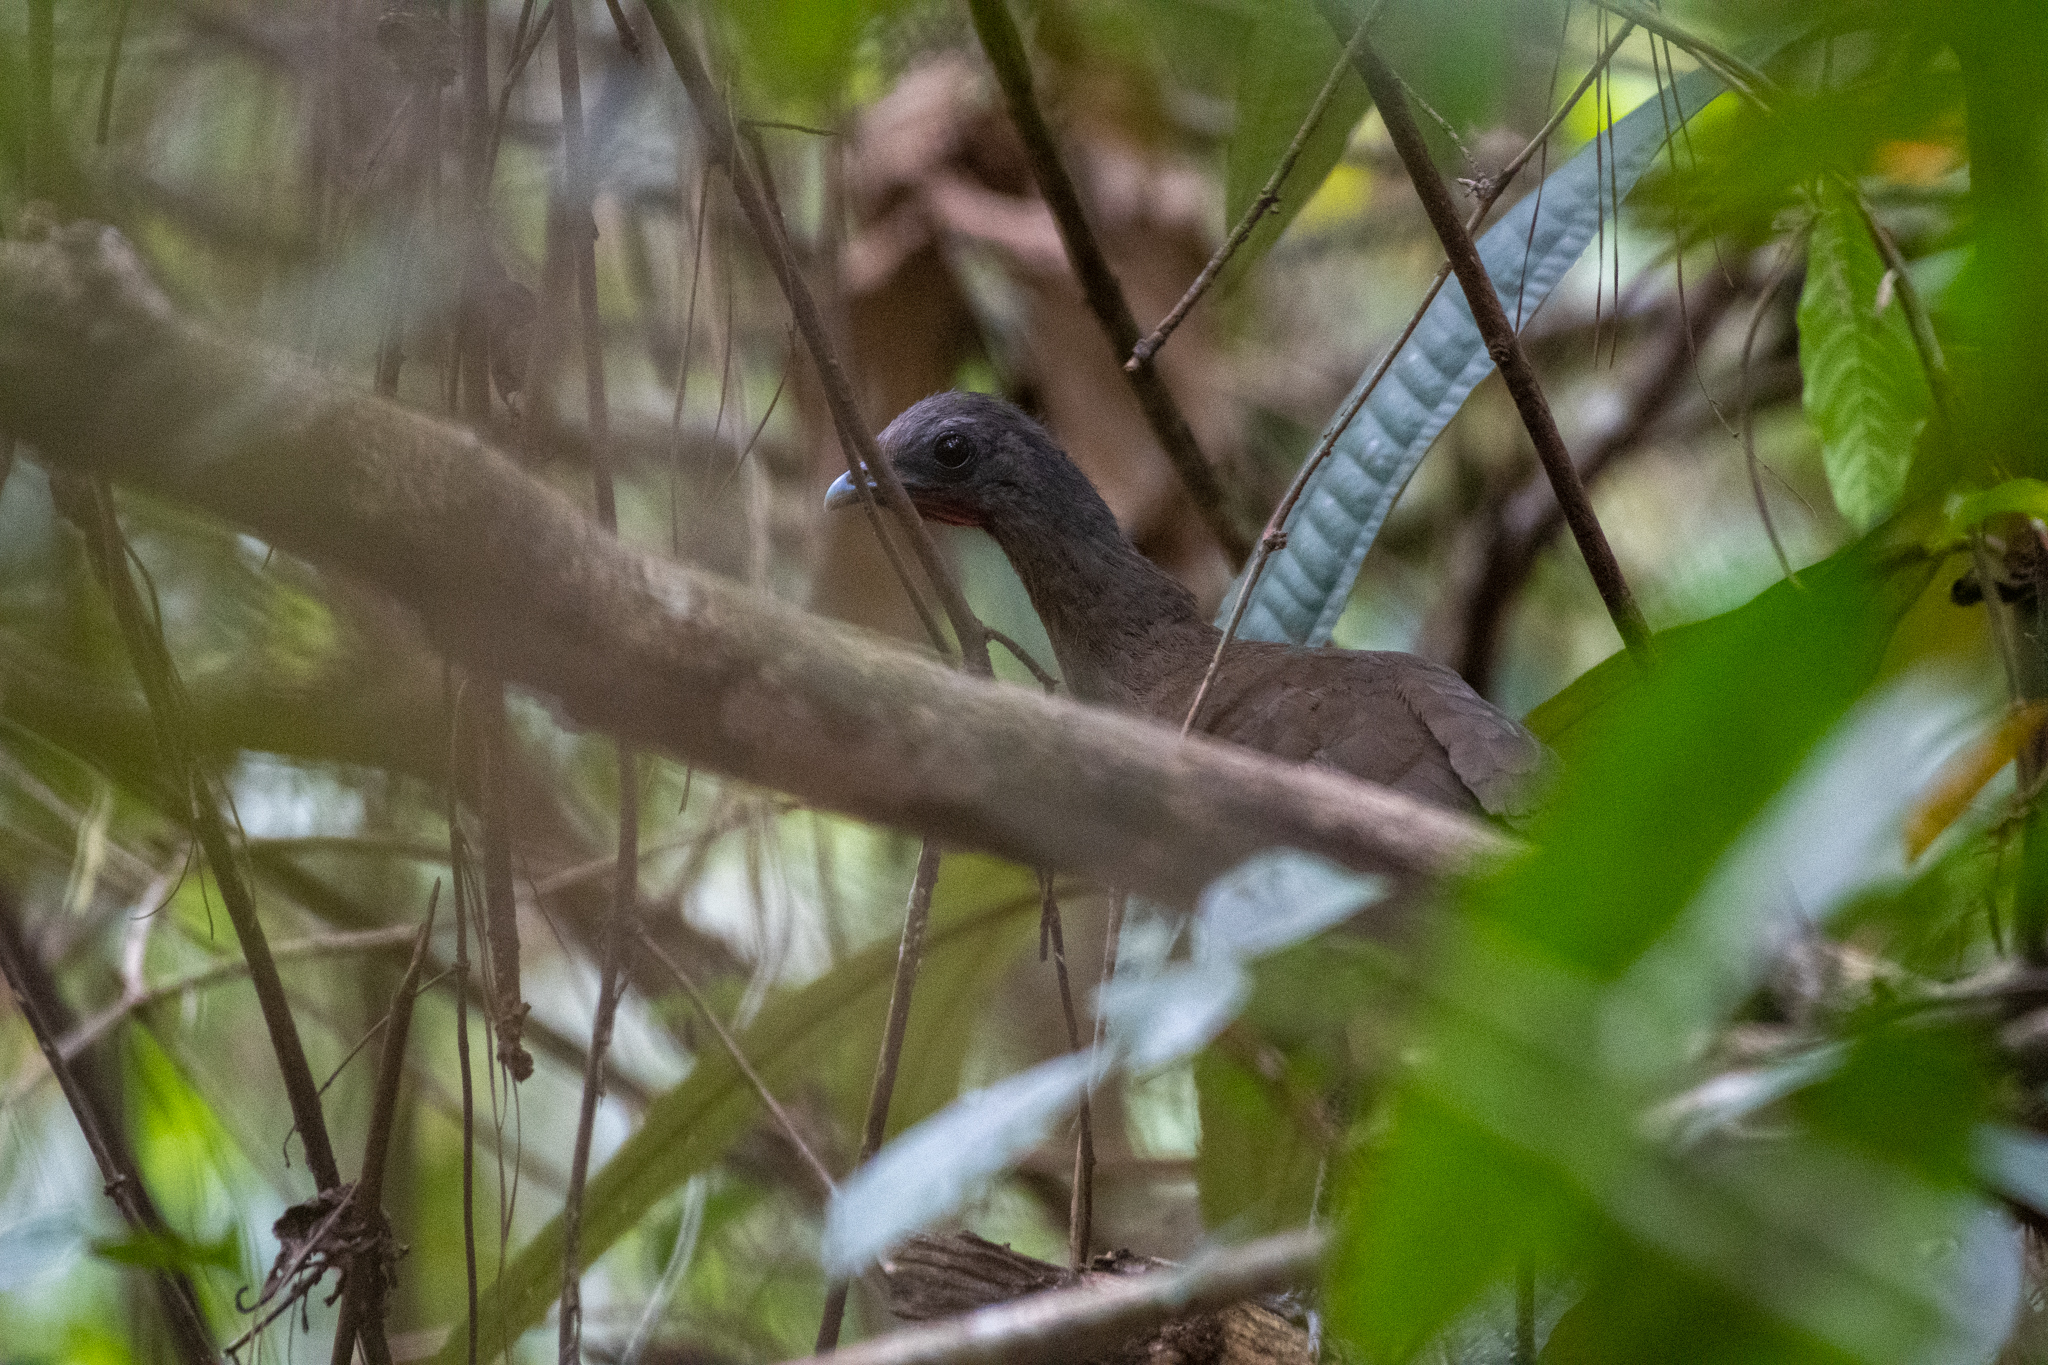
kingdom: Animalia
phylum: Chordata
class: Aves
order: Galliformes
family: Cracidae
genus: Ortalis
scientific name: Ortalis vetula
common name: Plain chachalaca
